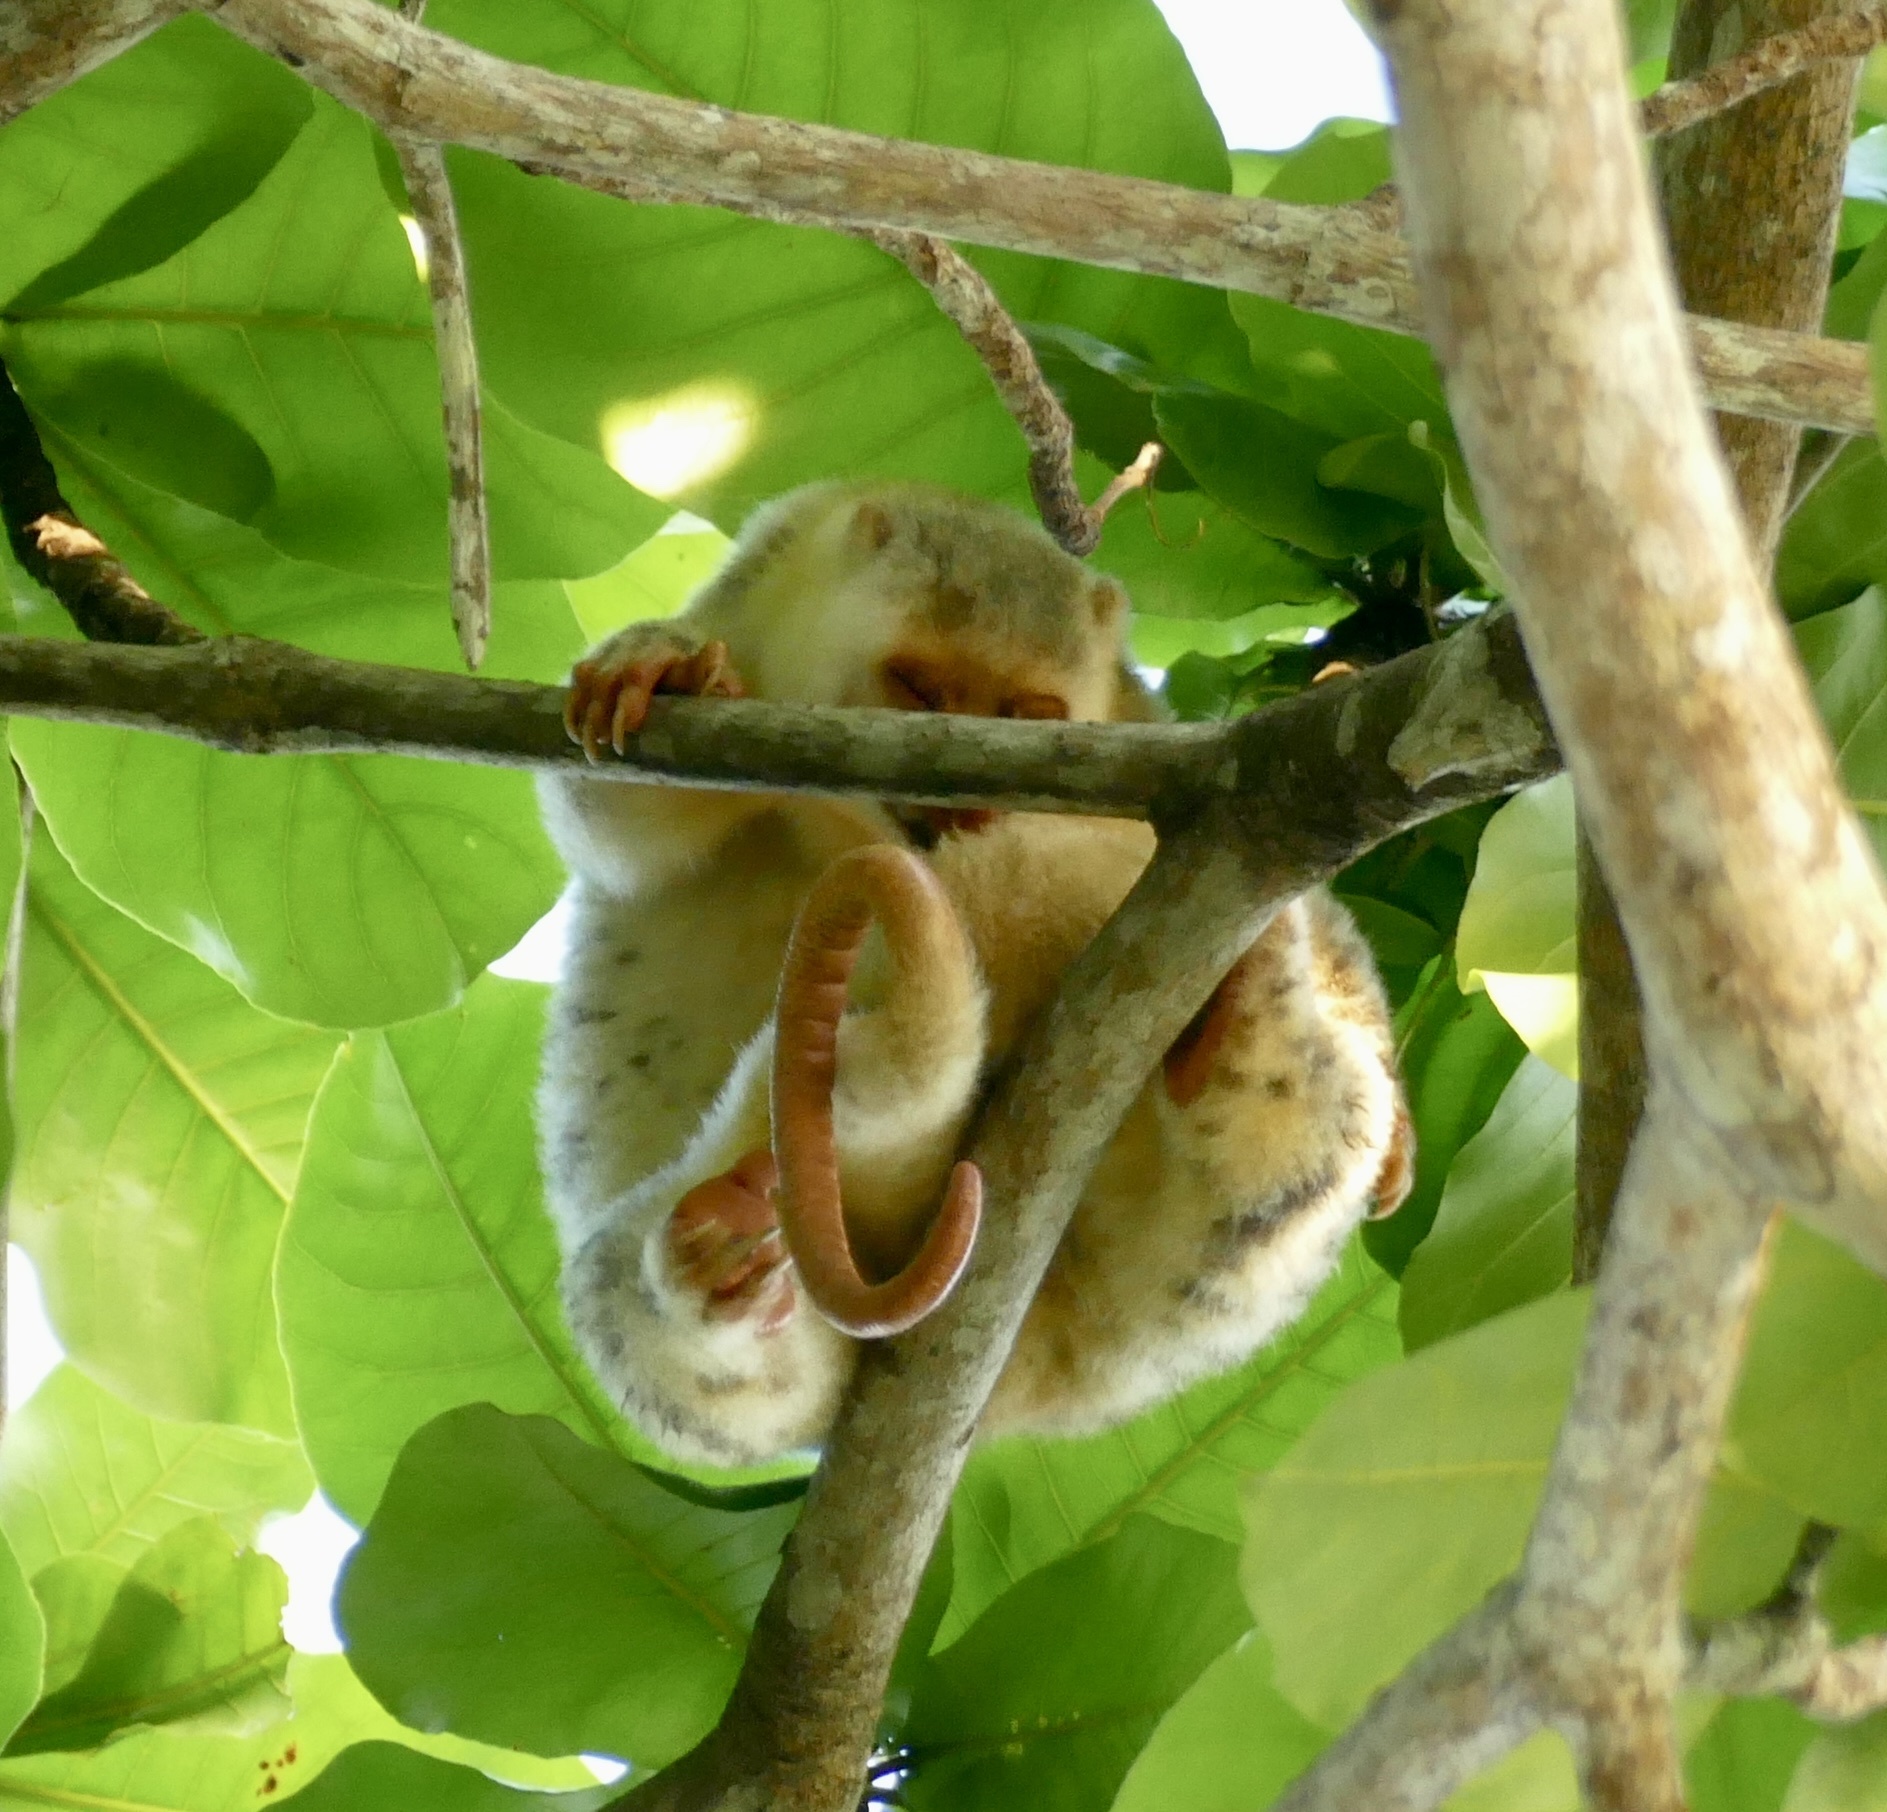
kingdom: Animalia
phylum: Chordata
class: Mammalia
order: Diprotodontia
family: Phalangeridae
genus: Spilocuscus
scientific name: Spilocuscus papuensis
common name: Waigeou cuscus
